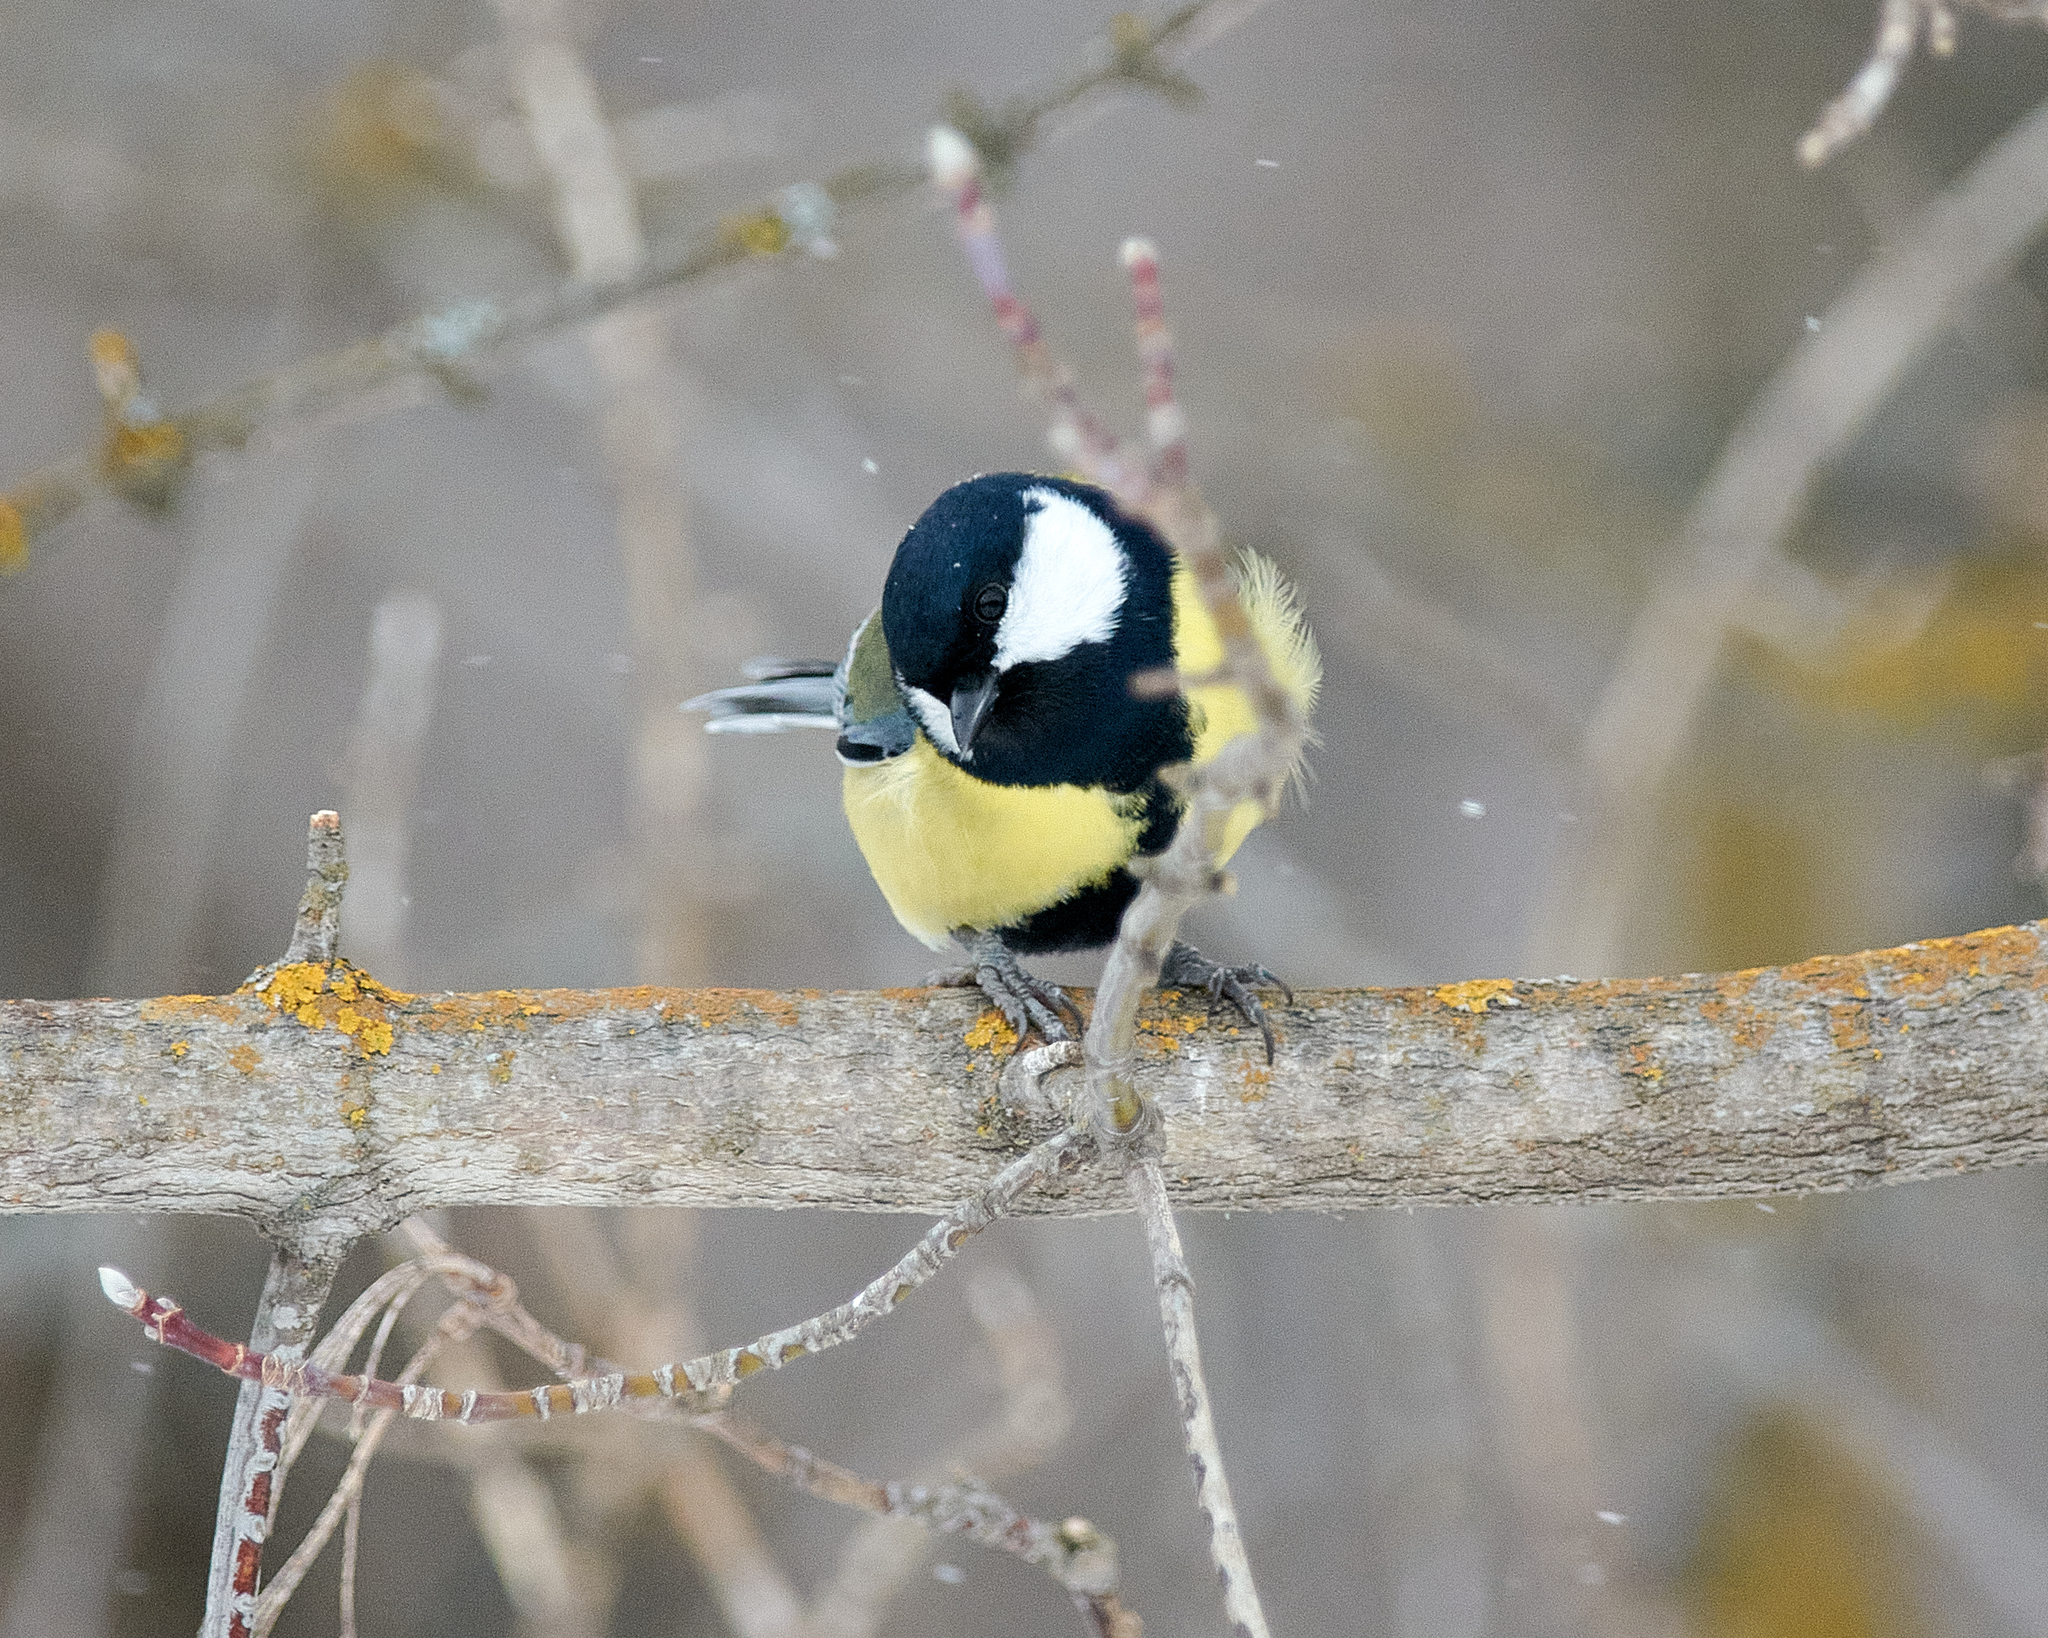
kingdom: Animalia
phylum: Chordata
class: Aves
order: Passeriformes
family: Paridae
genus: Parus
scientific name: Parus major
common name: Great tit
